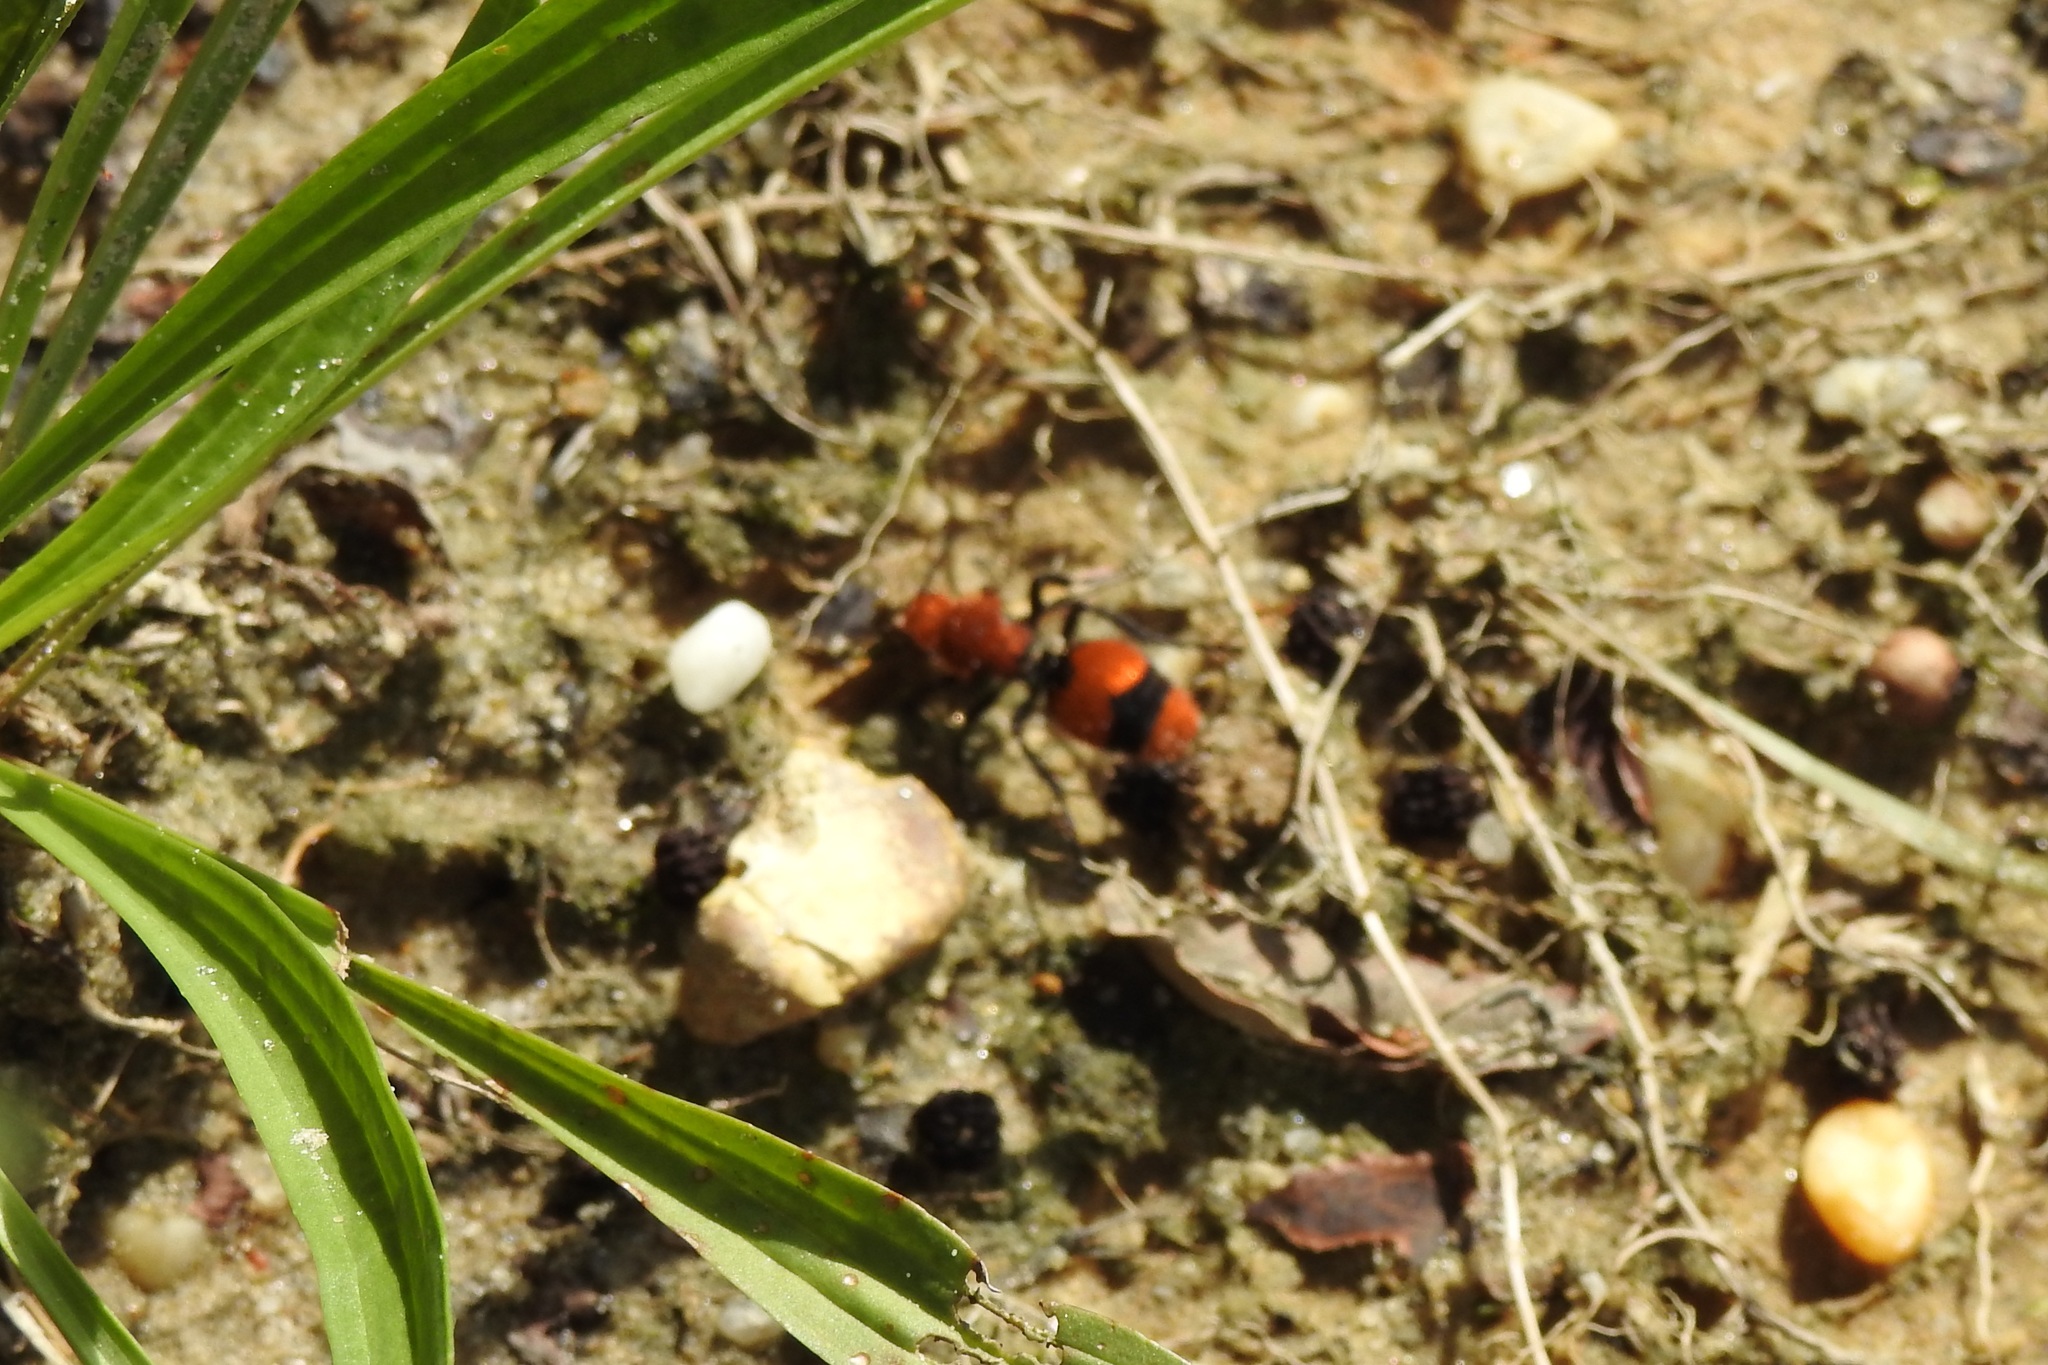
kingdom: Animalia
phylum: Arthropoda
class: Insecta
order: Hymenoptera
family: Mutillidae
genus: Dasymutilla
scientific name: Dasymutilla occidentalis
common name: Common eastern velvet ant
